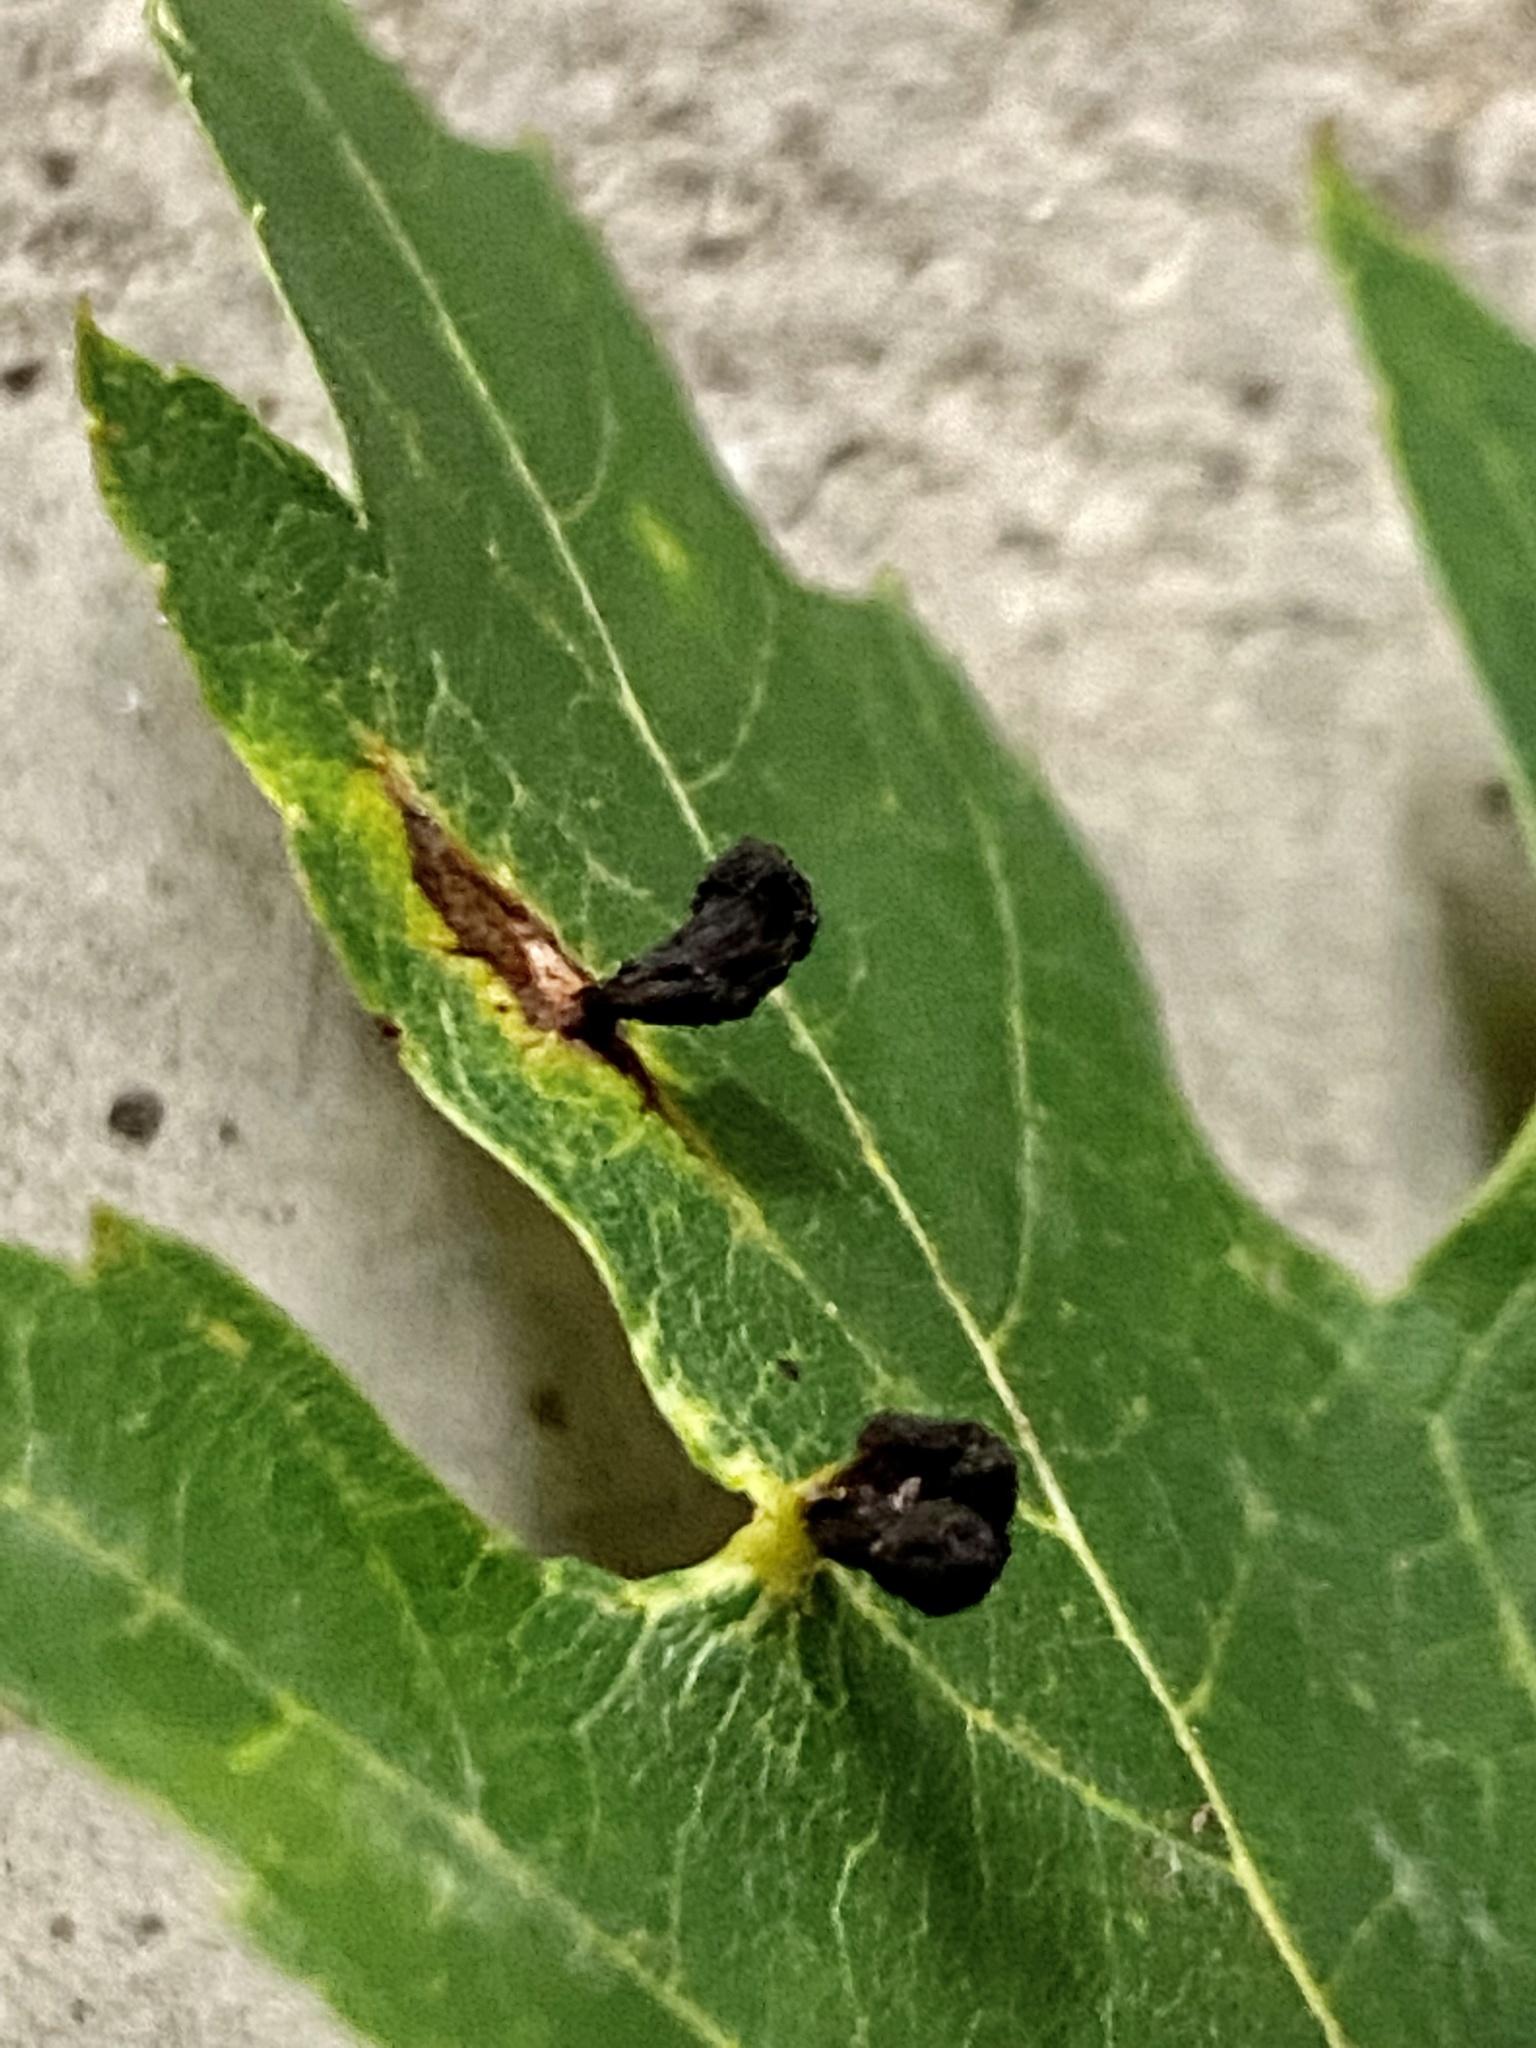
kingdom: Animalia
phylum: Arthropoda
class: Arachnida
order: Trombidiformes
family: Eriophyidae
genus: Vasates
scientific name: Vasates quadripedes
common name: Maple bladder gall mite
